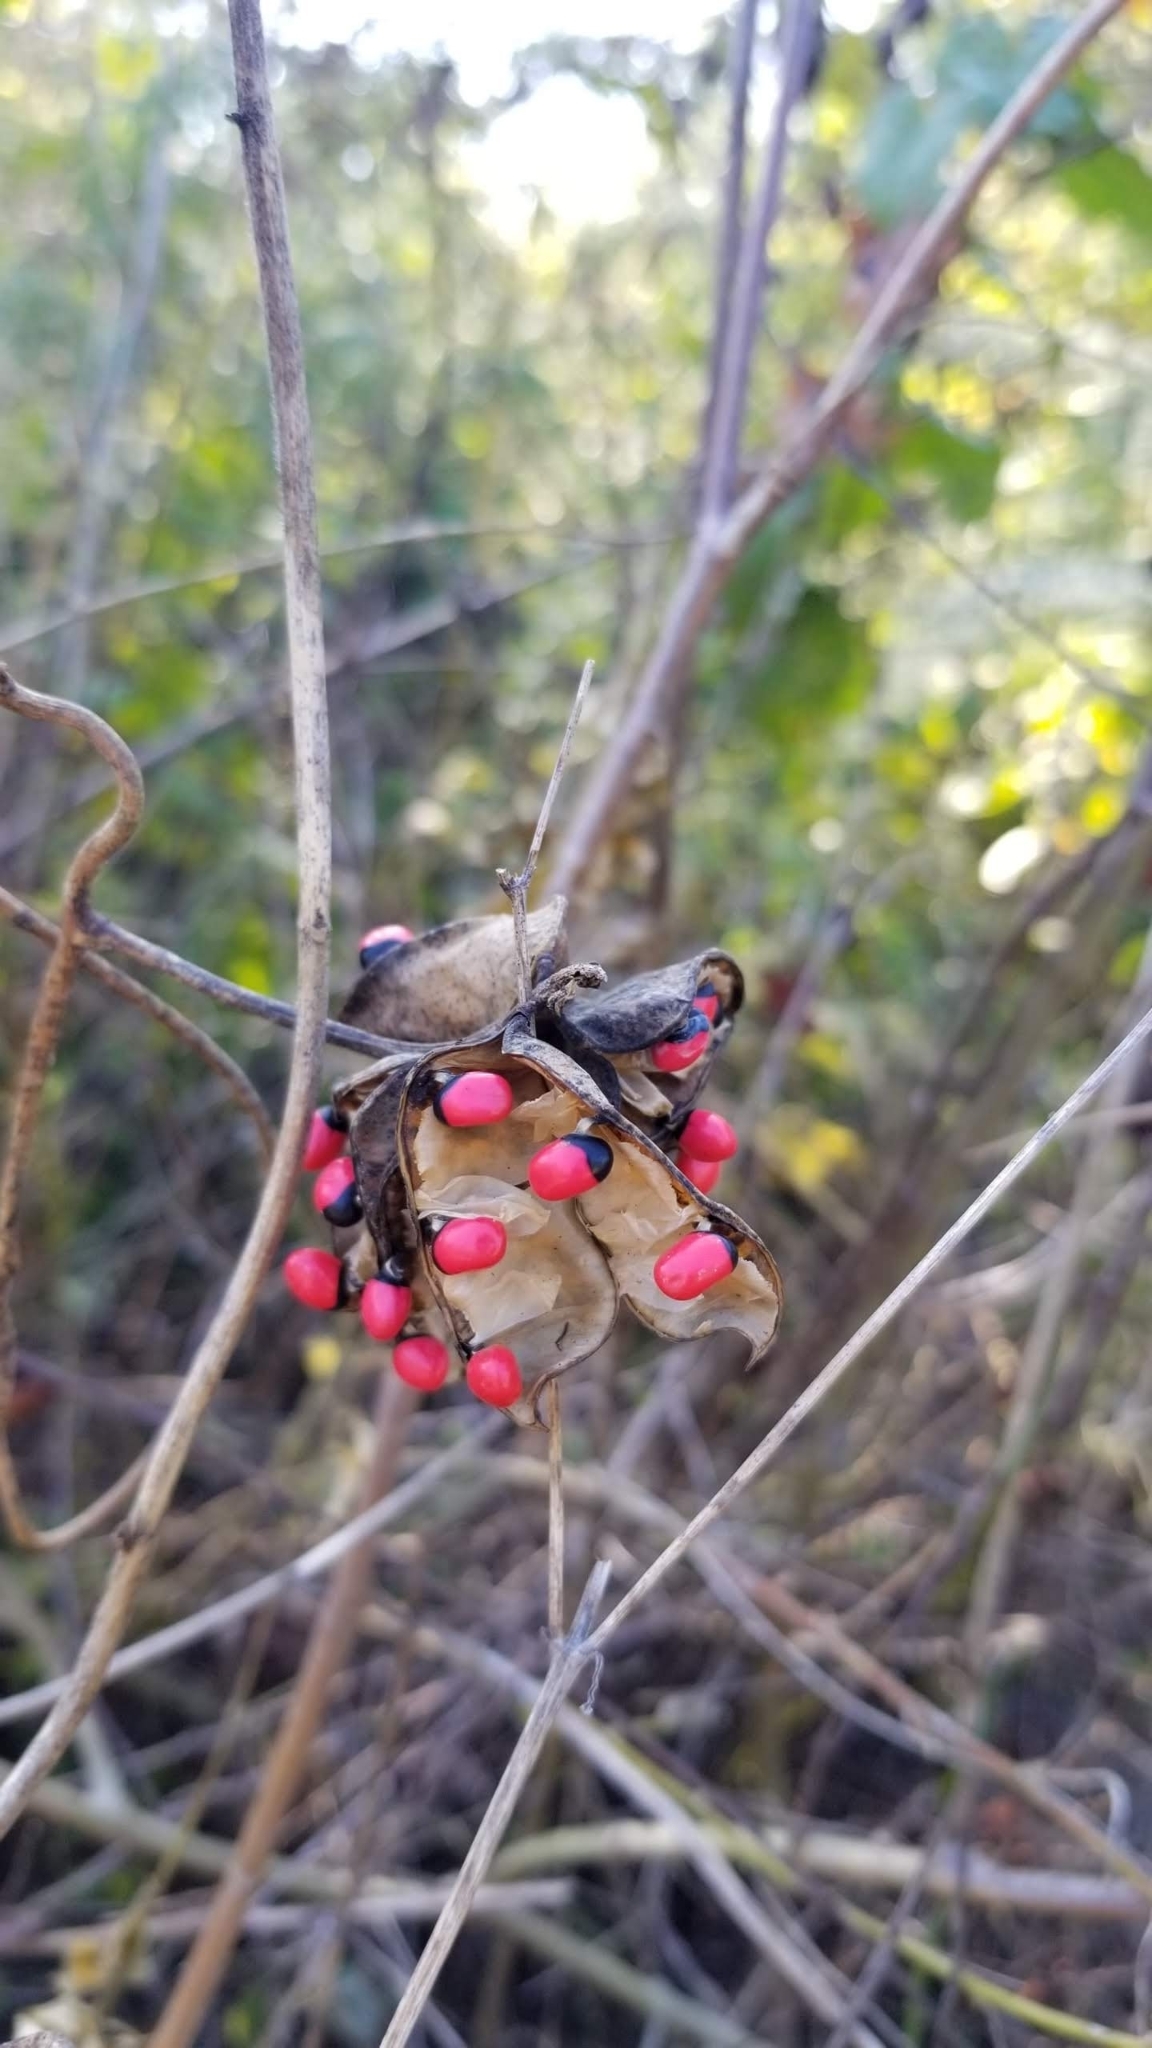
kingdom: Plantae
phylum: Tracheophyta
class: Magnoliopsida
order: Fabales
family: Fabaceae
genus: Abrus
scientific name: Abrus precatorius
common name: Rosarypea
